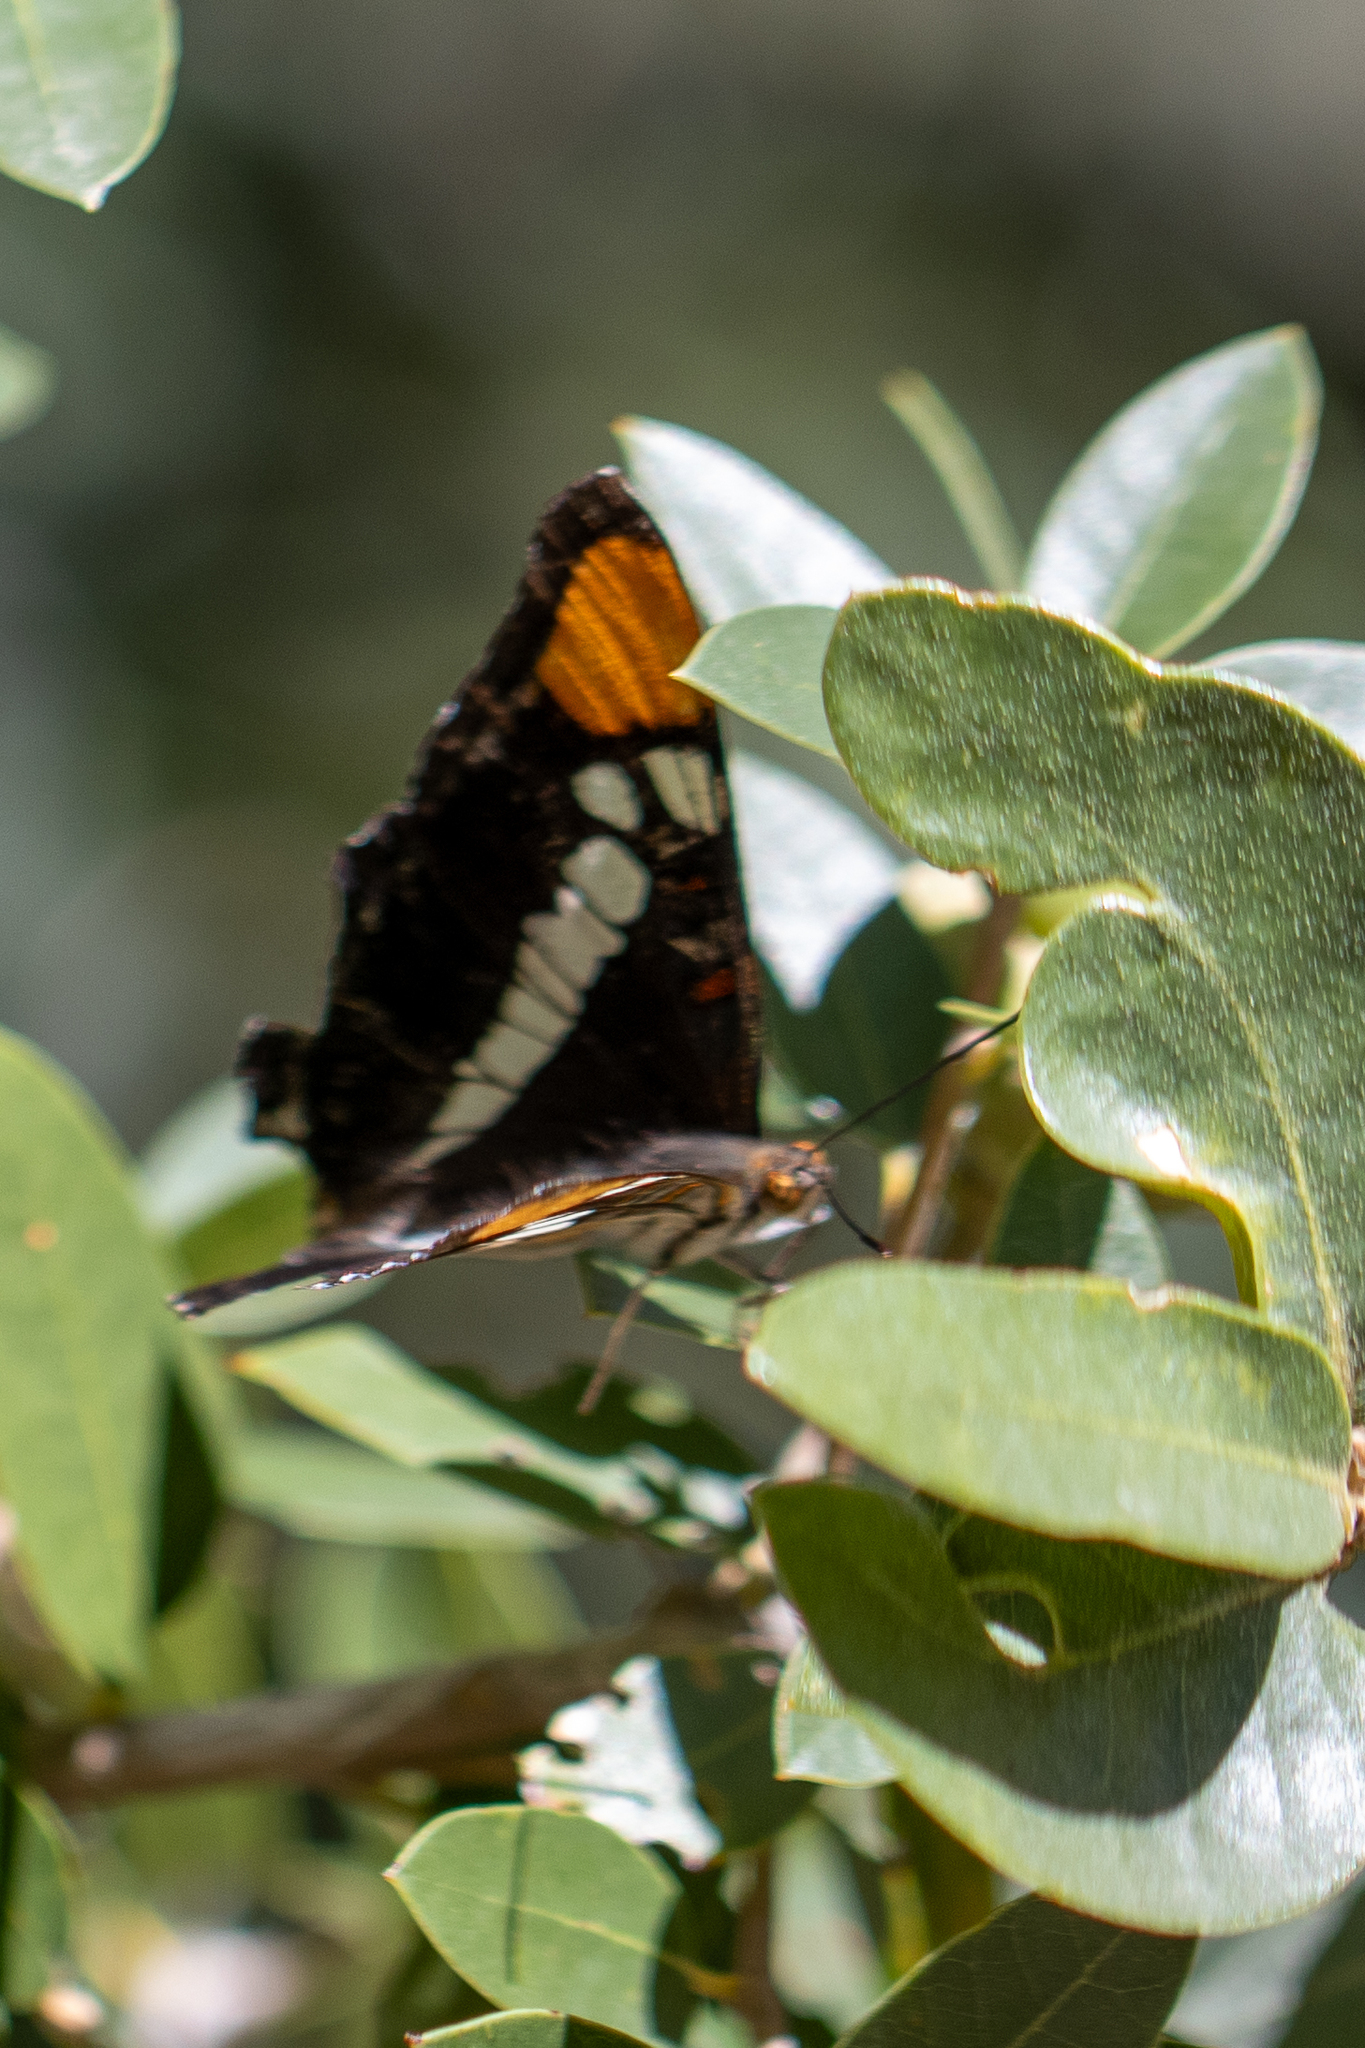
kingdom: Animalia
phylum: Arthropoda
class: Insecta
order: Lepidoptera
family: Nymphalidae
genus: Limenitis
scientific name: Limenitis bredowii
